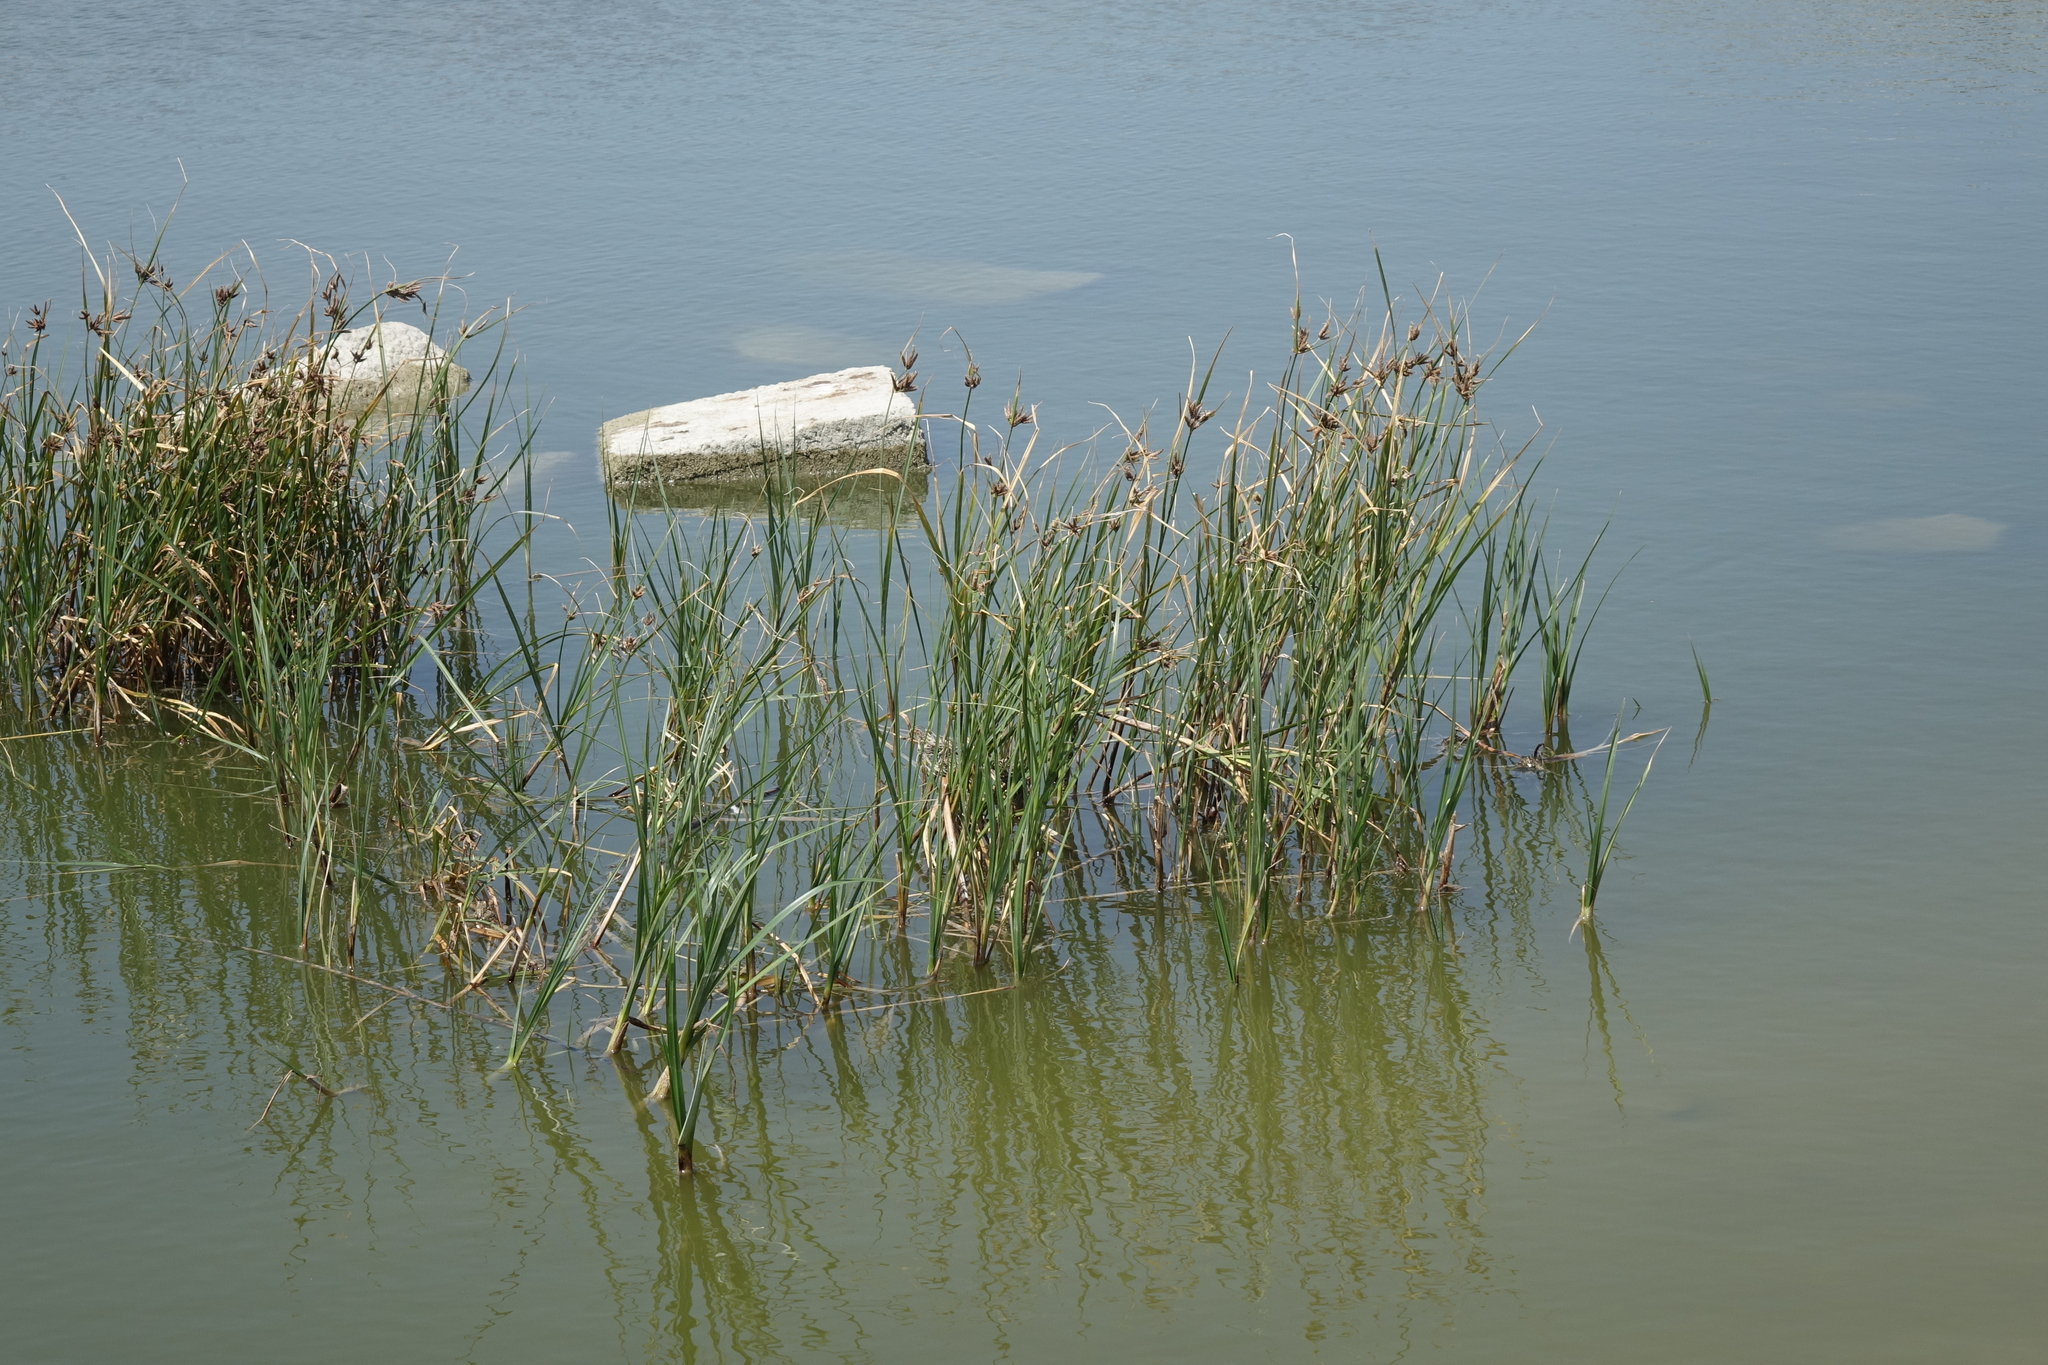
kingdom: Plantae
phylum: Tracheophyta
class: Liliopsida
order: Poales
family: Cyperaceae
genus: Bolboschoenus
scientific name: Bolboschoenus maritimus
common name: Sea club-rush
